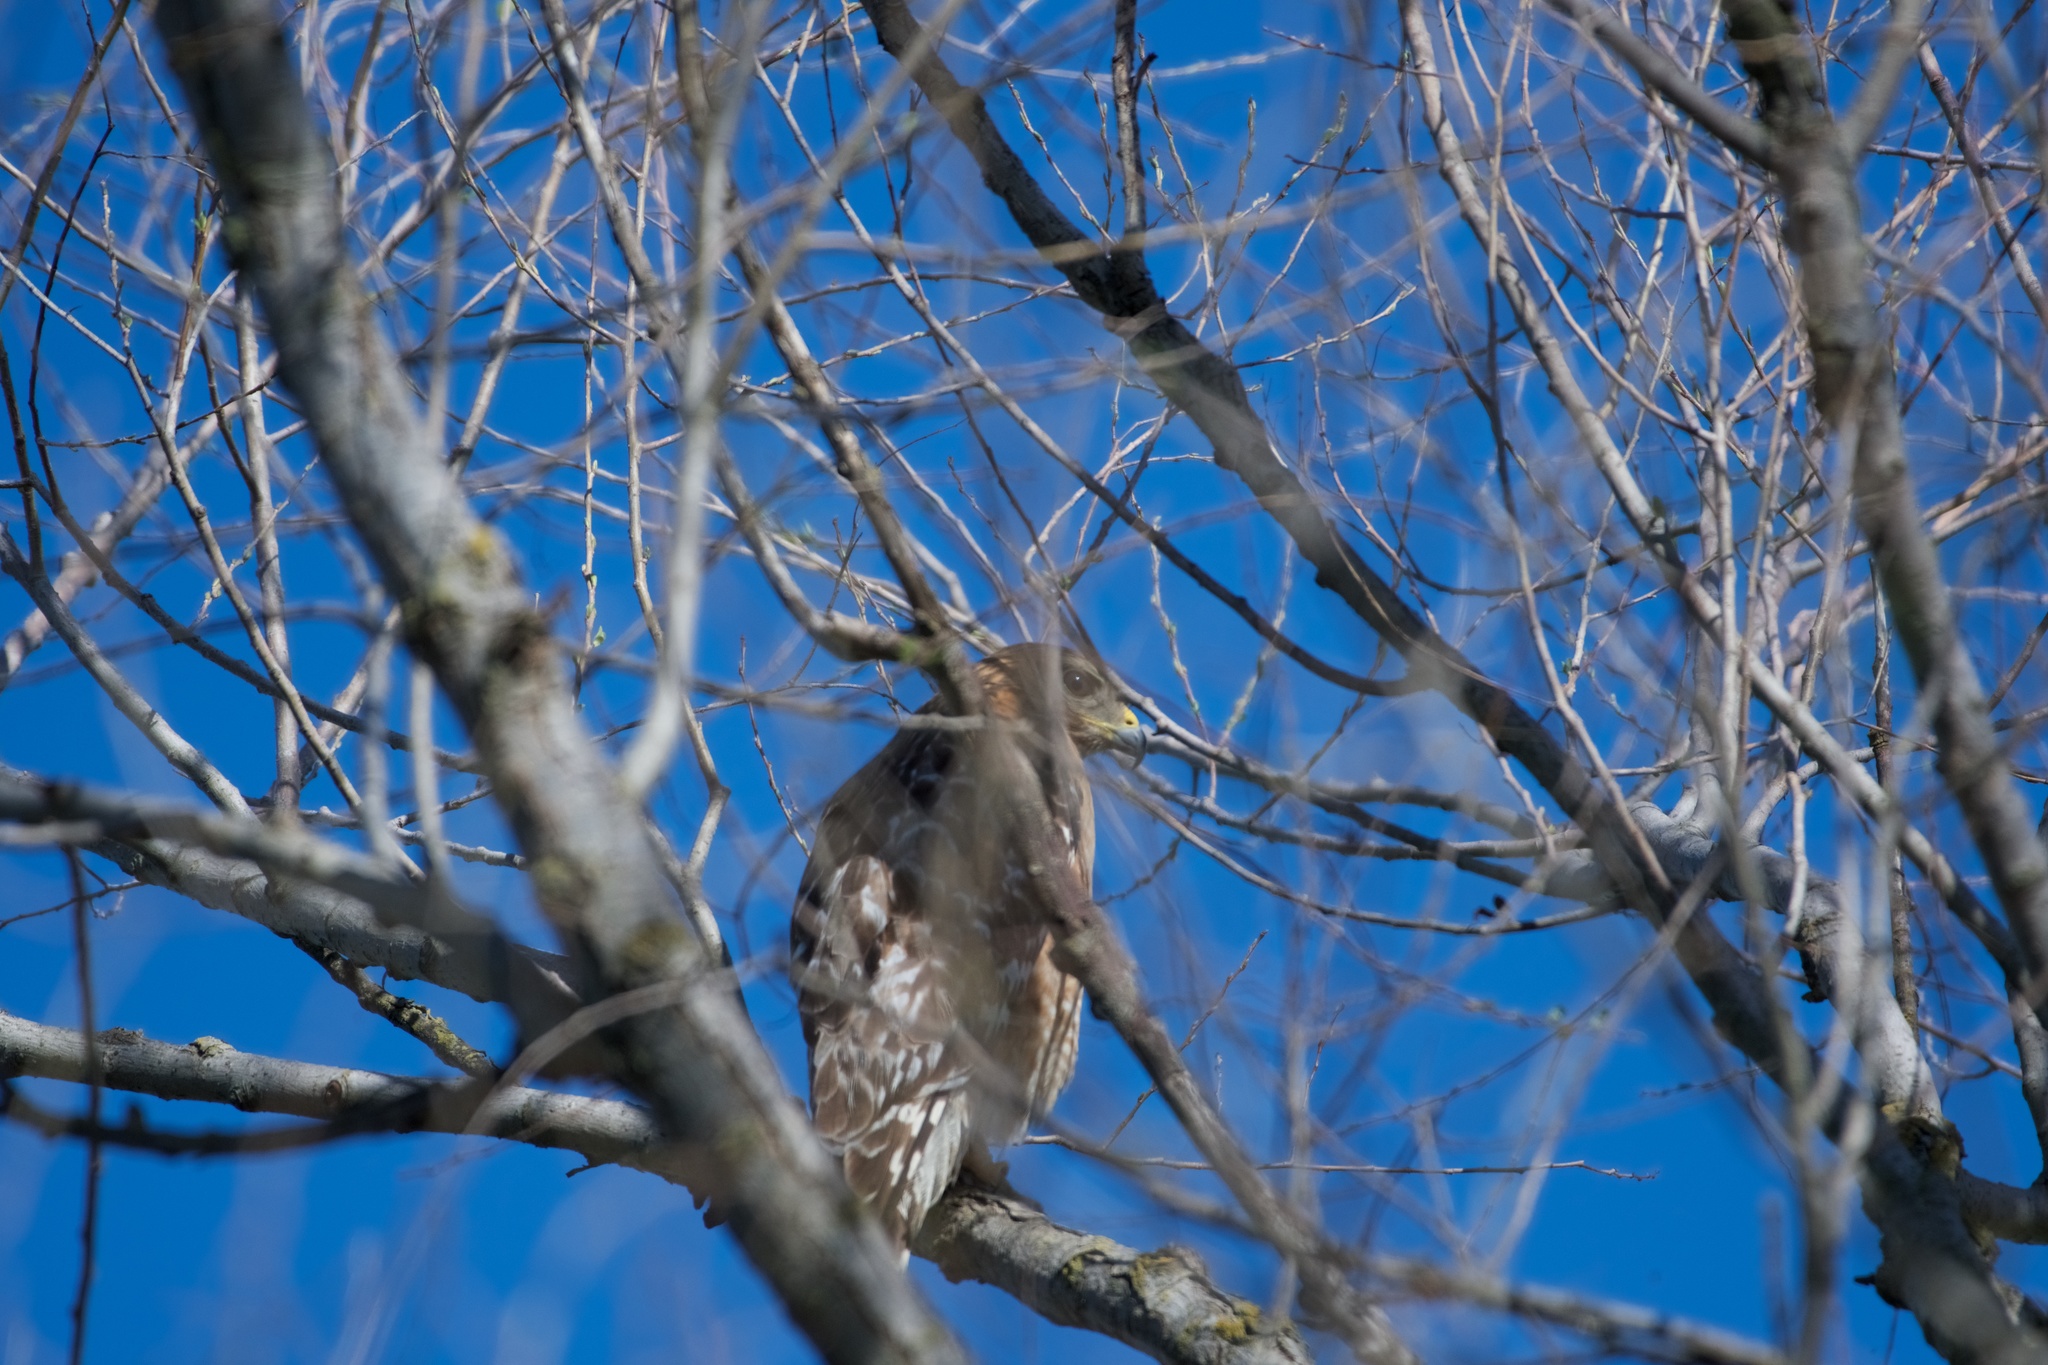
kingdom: Animalia
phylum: Chordata
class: Aves
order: Accipitriformes
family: Accipitridae
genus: Buteo
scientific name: Buteo lineatus
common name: Red-shouldered hawk
